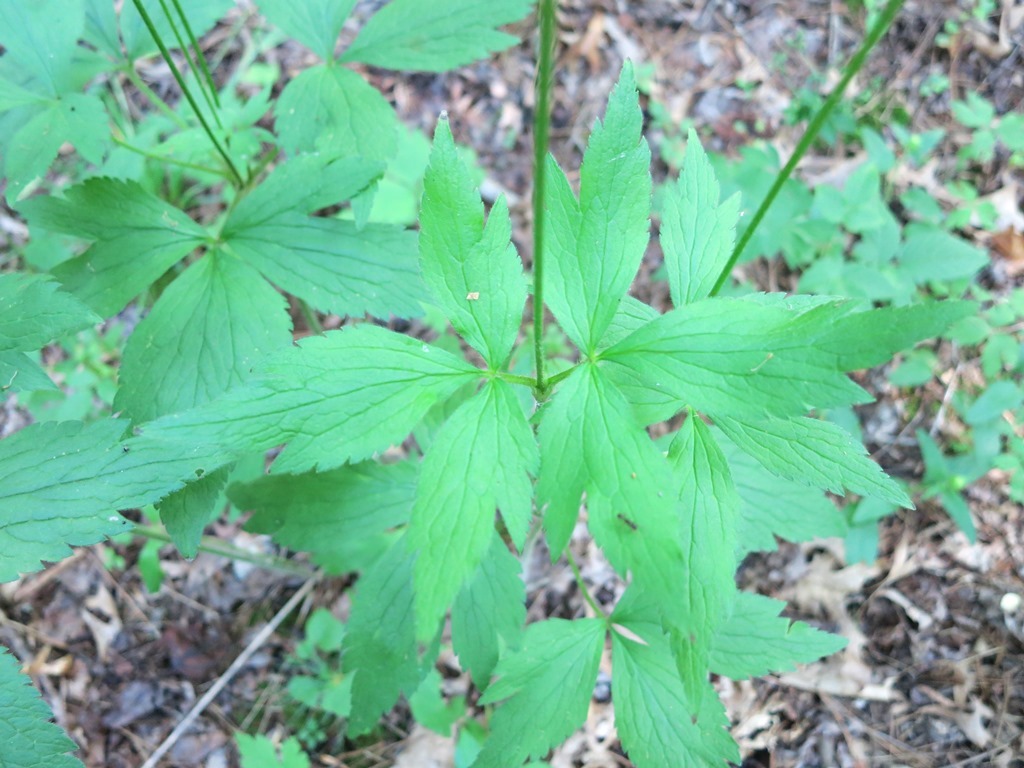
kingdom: Plantae
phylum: Tracheophyta
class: Magnoliopsida
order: Ranunculales
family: Ranunculaceae
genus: Anemone
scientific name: Anemone virginiana
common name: Tall anemone
